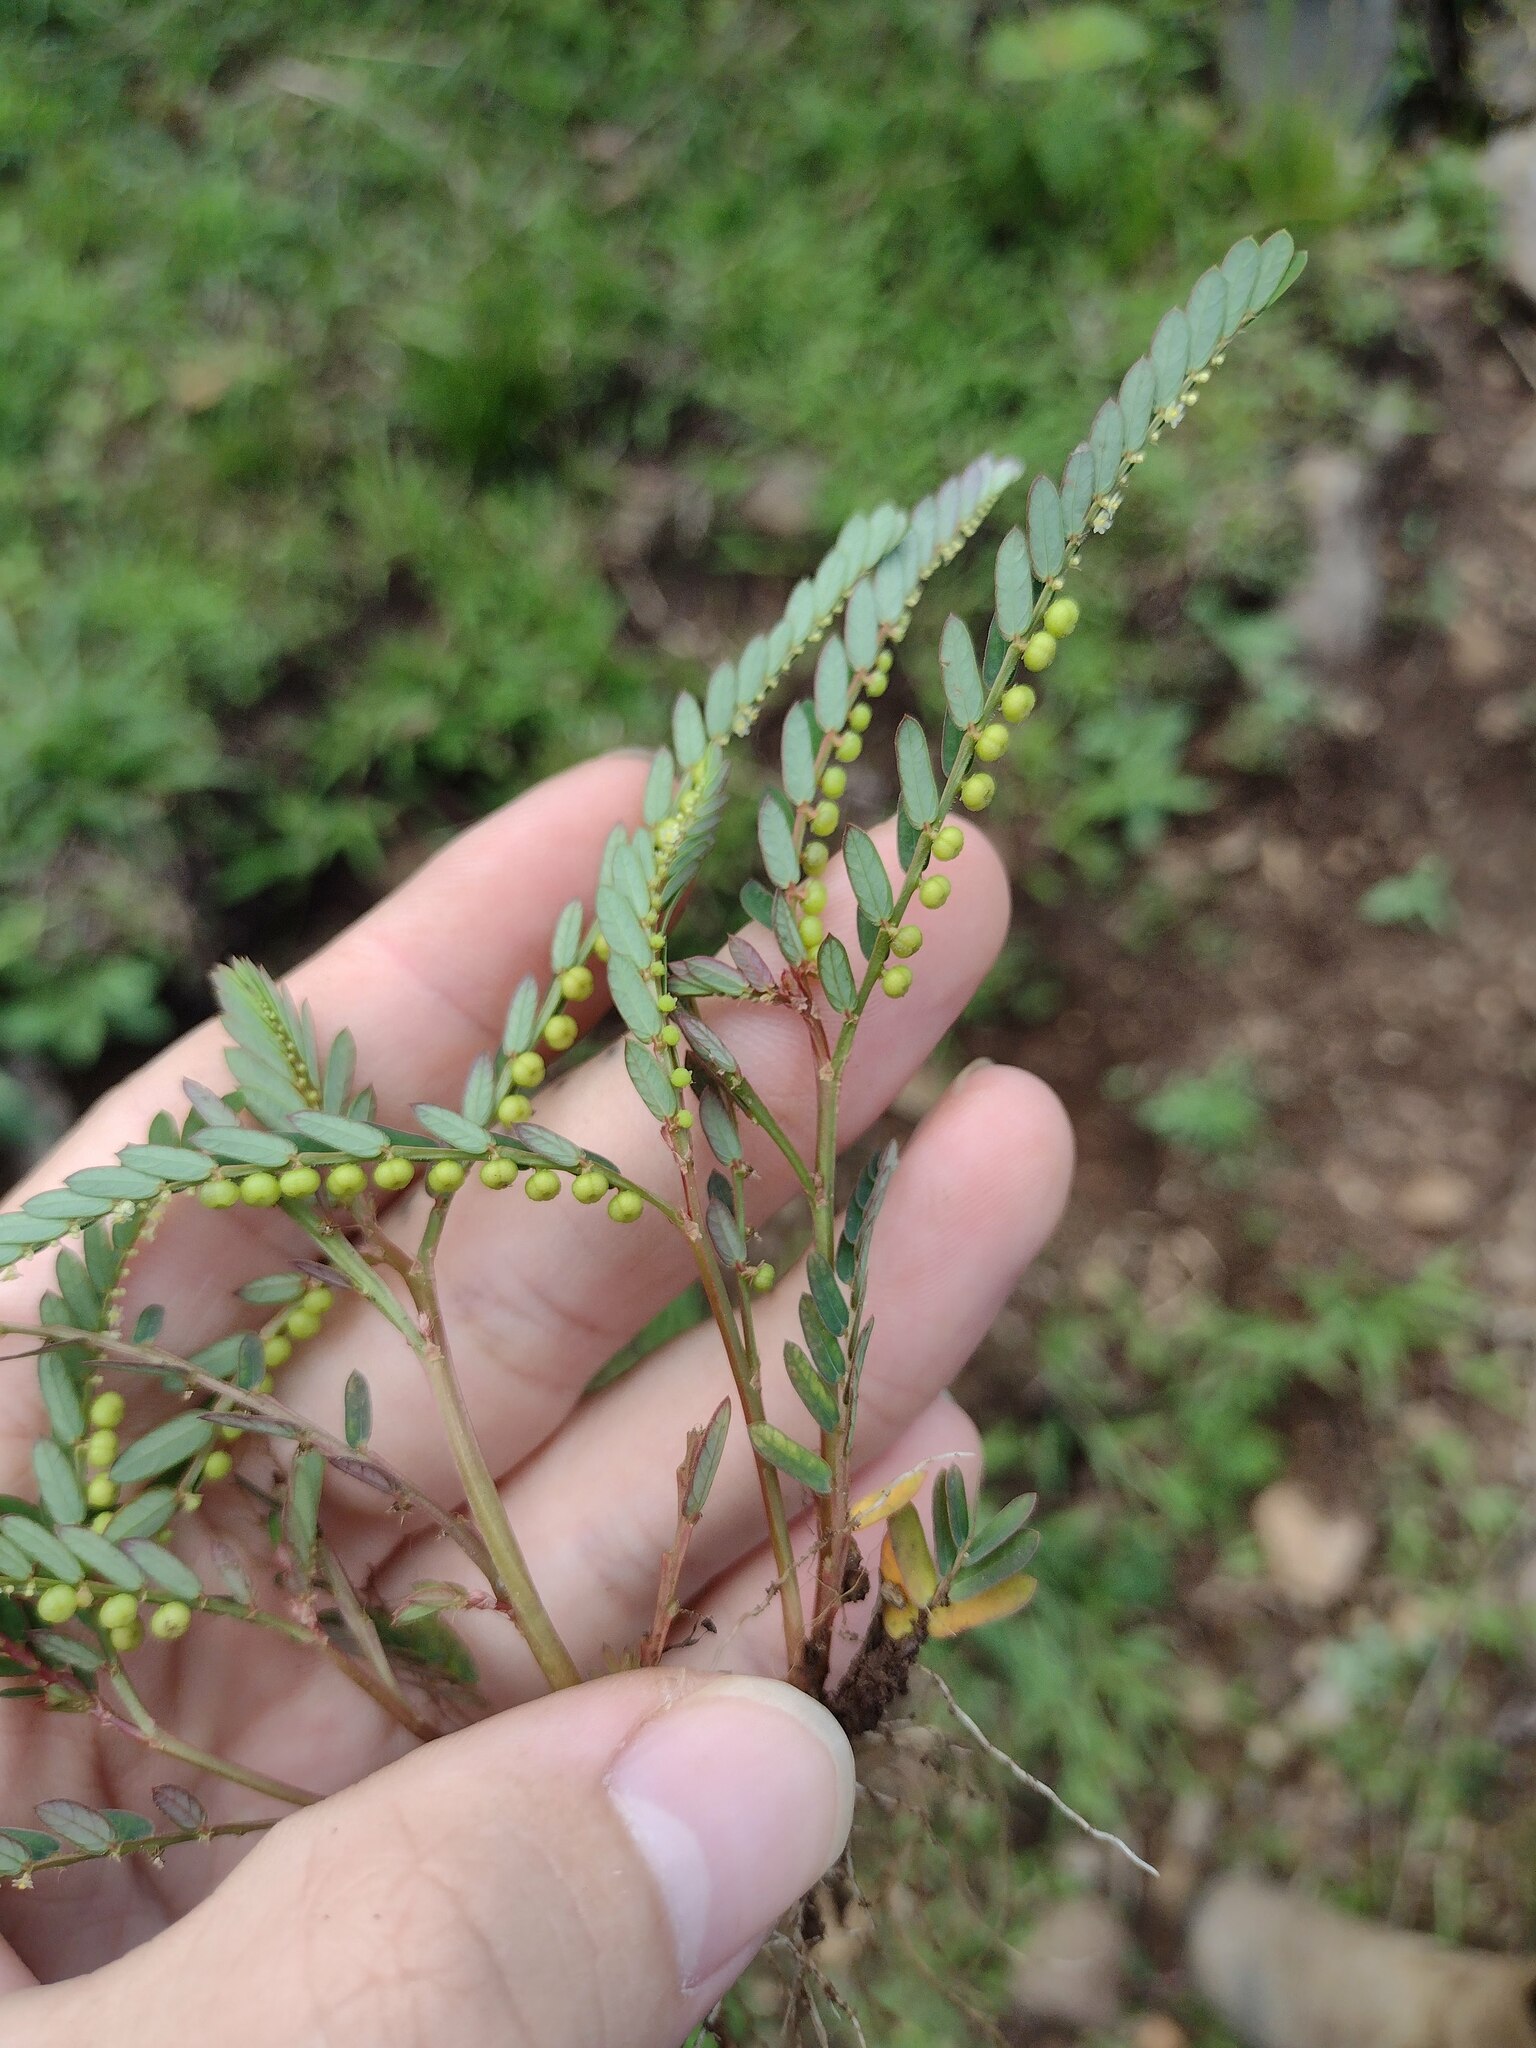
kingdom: Plantae
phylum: Tracheophyta
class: Magnoliopsida
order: Malpighiales
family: Phyllanthaceae
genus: Phyllanthus
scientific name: Phyllanthus urinaria
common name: Chamber bitter
